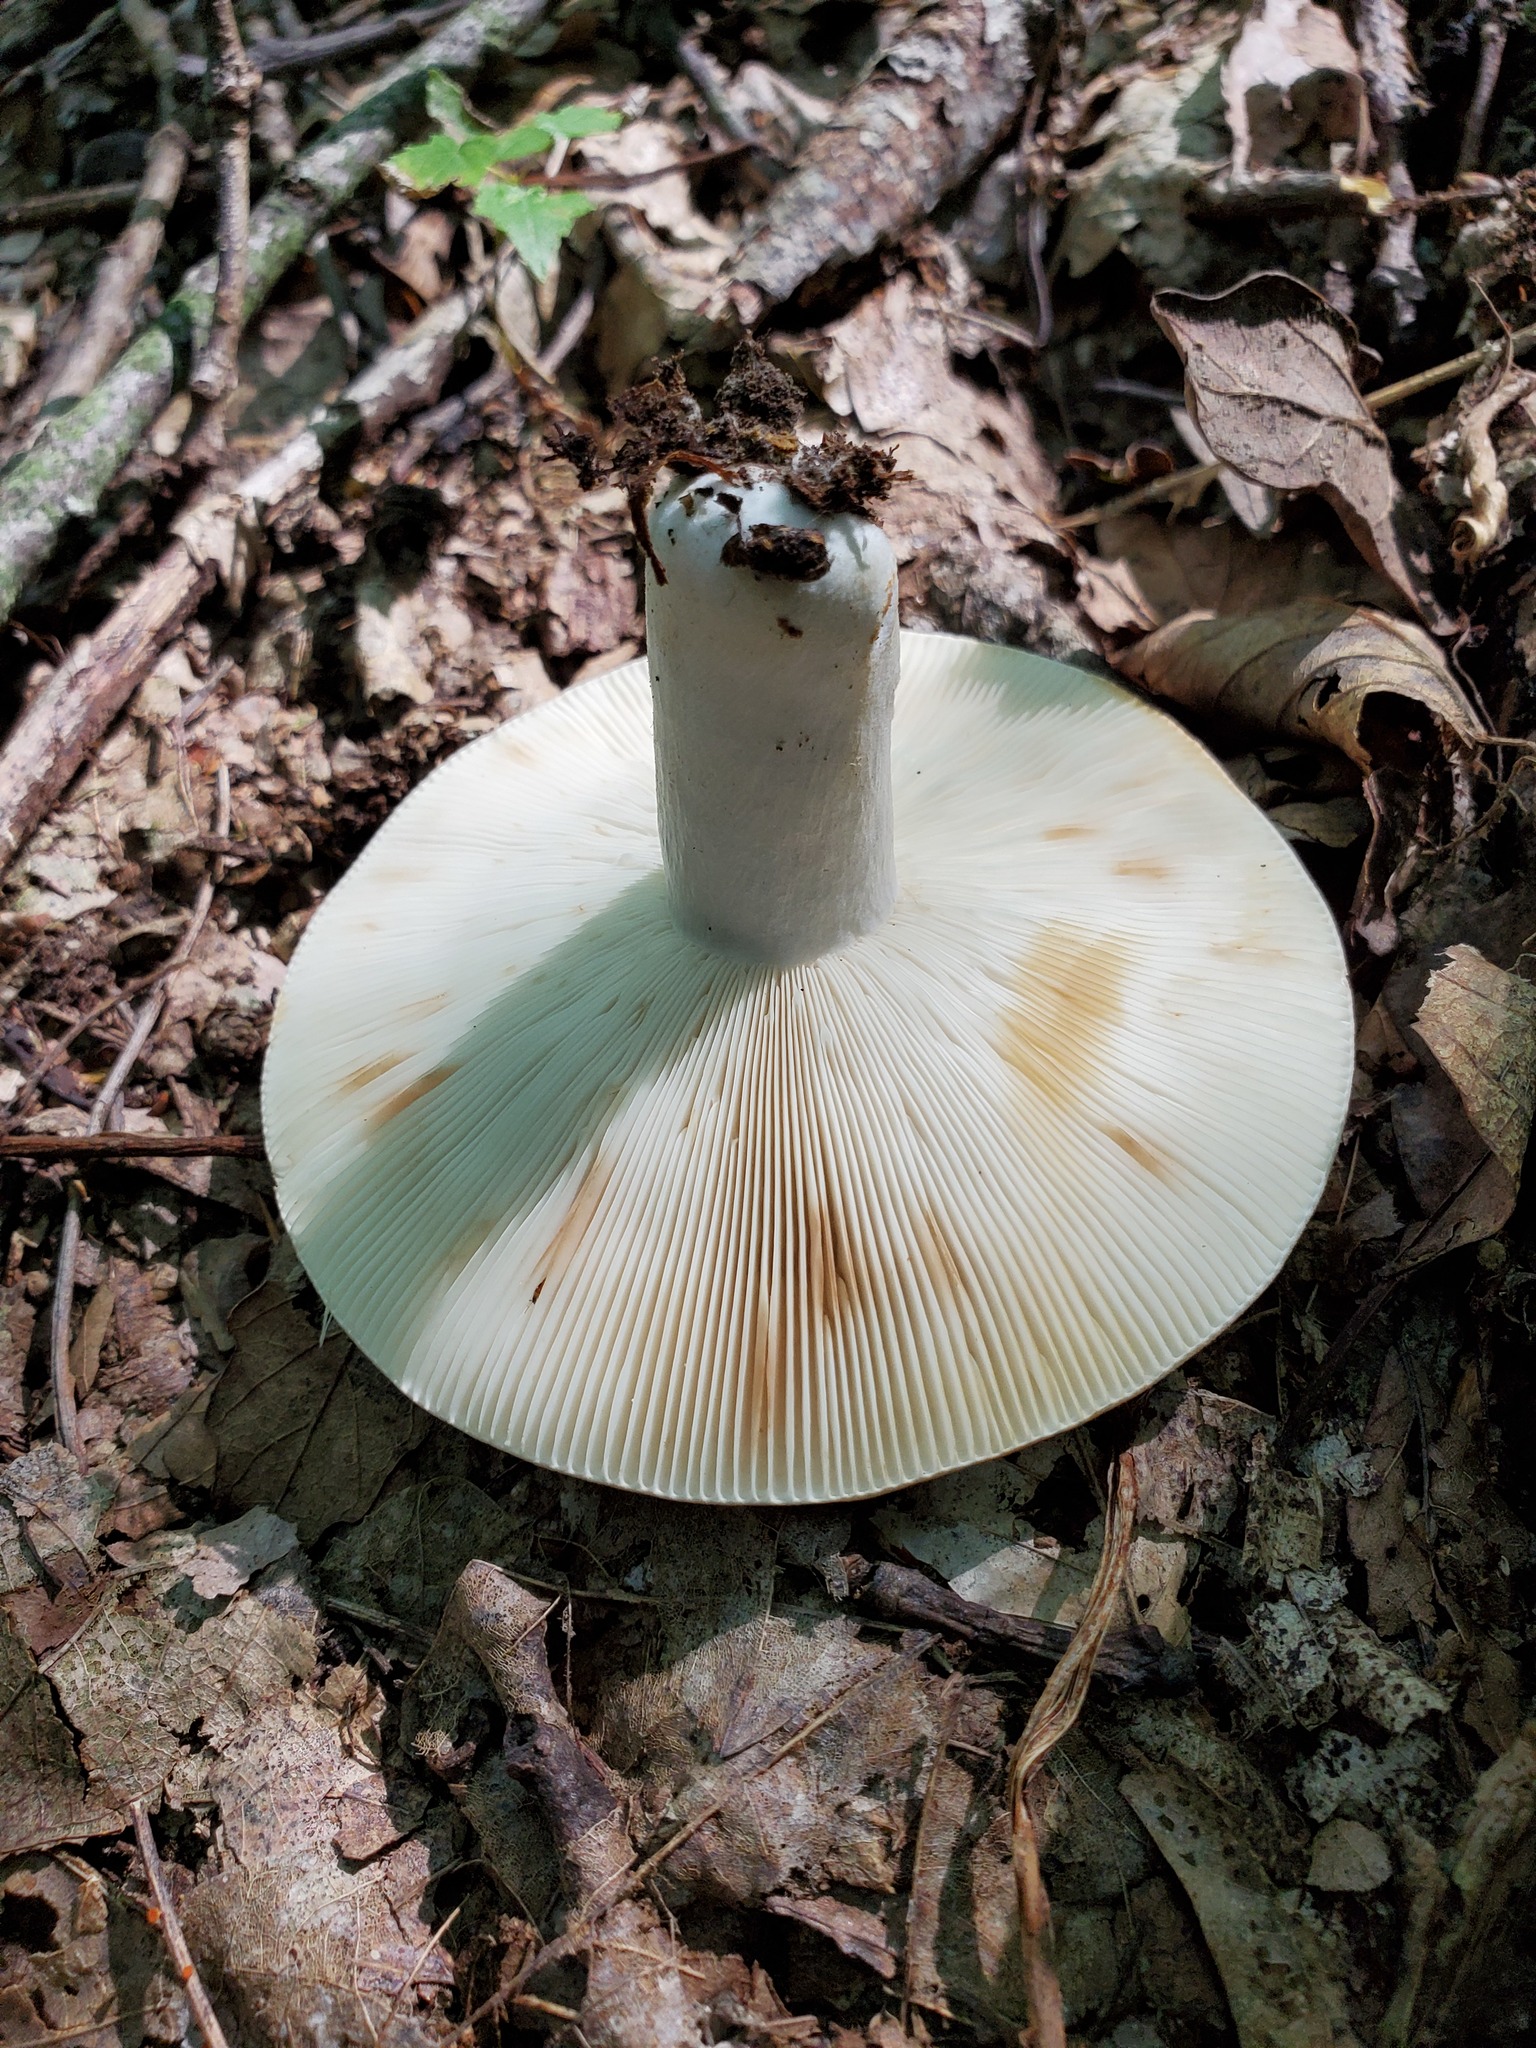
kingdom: Fungi
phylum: Basidiomycota
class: Agaricomycetes
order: Russulales
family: Russulaceae
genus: Russula
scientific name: Russula compacta
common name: Fishbiscuit russula
